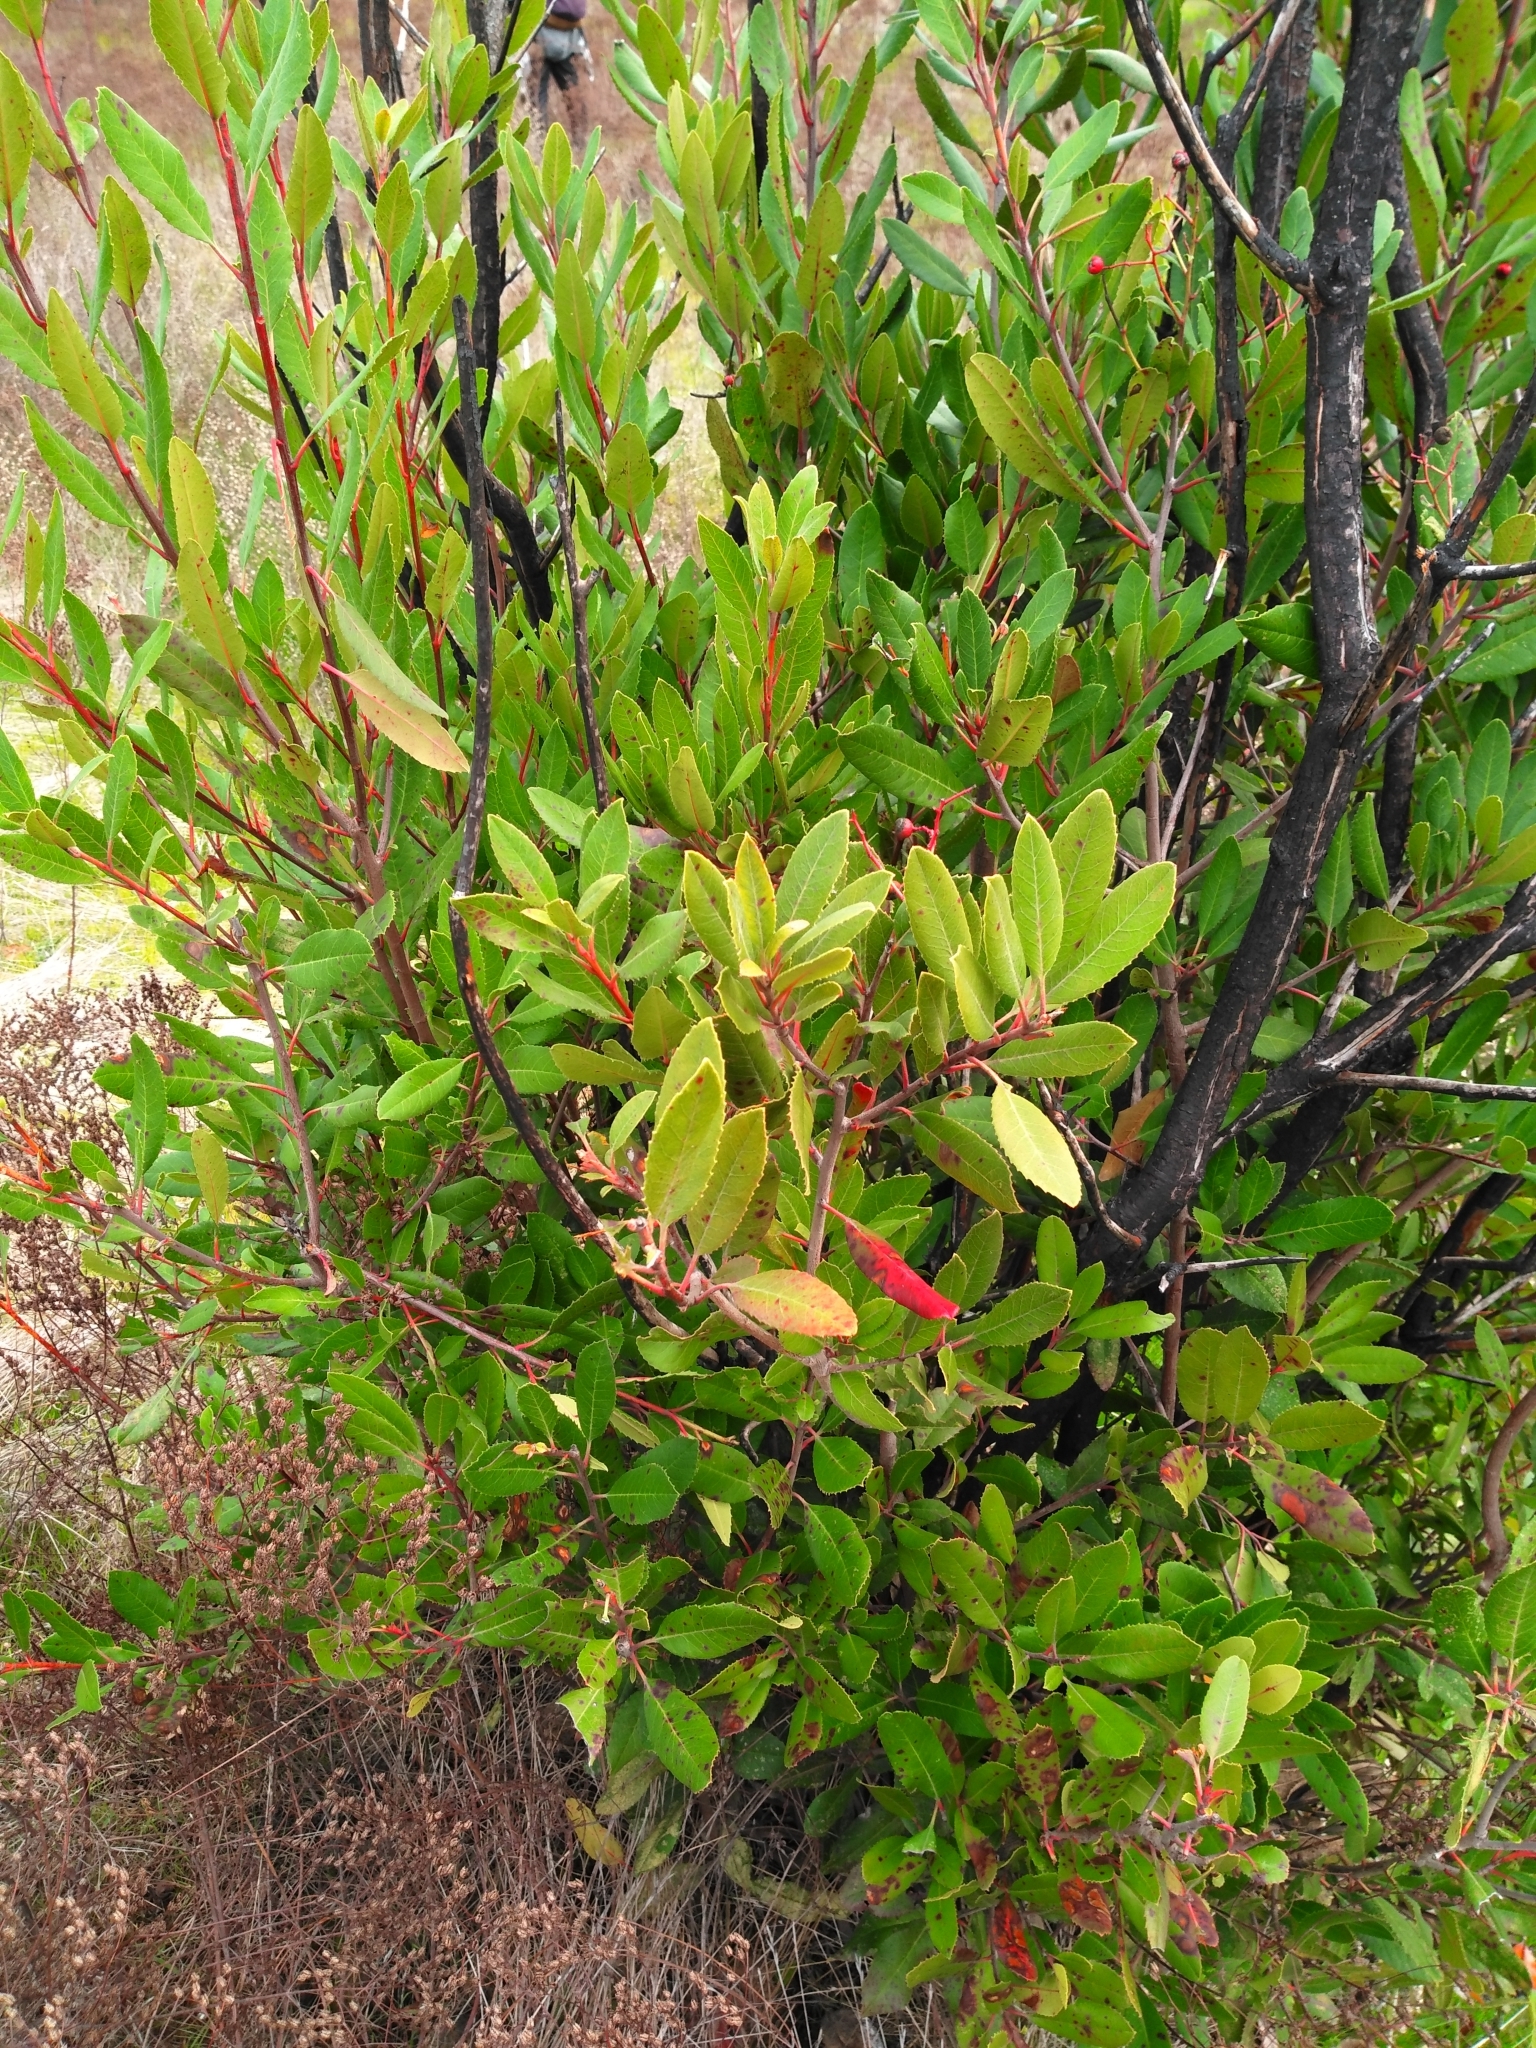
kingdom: Plantae
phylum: Tracheophyta
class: Magnoliopsida
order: Rosales
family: Rosaceae
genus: Heteromeles
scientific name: Heteromeles arbutifolia
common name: California-holly
